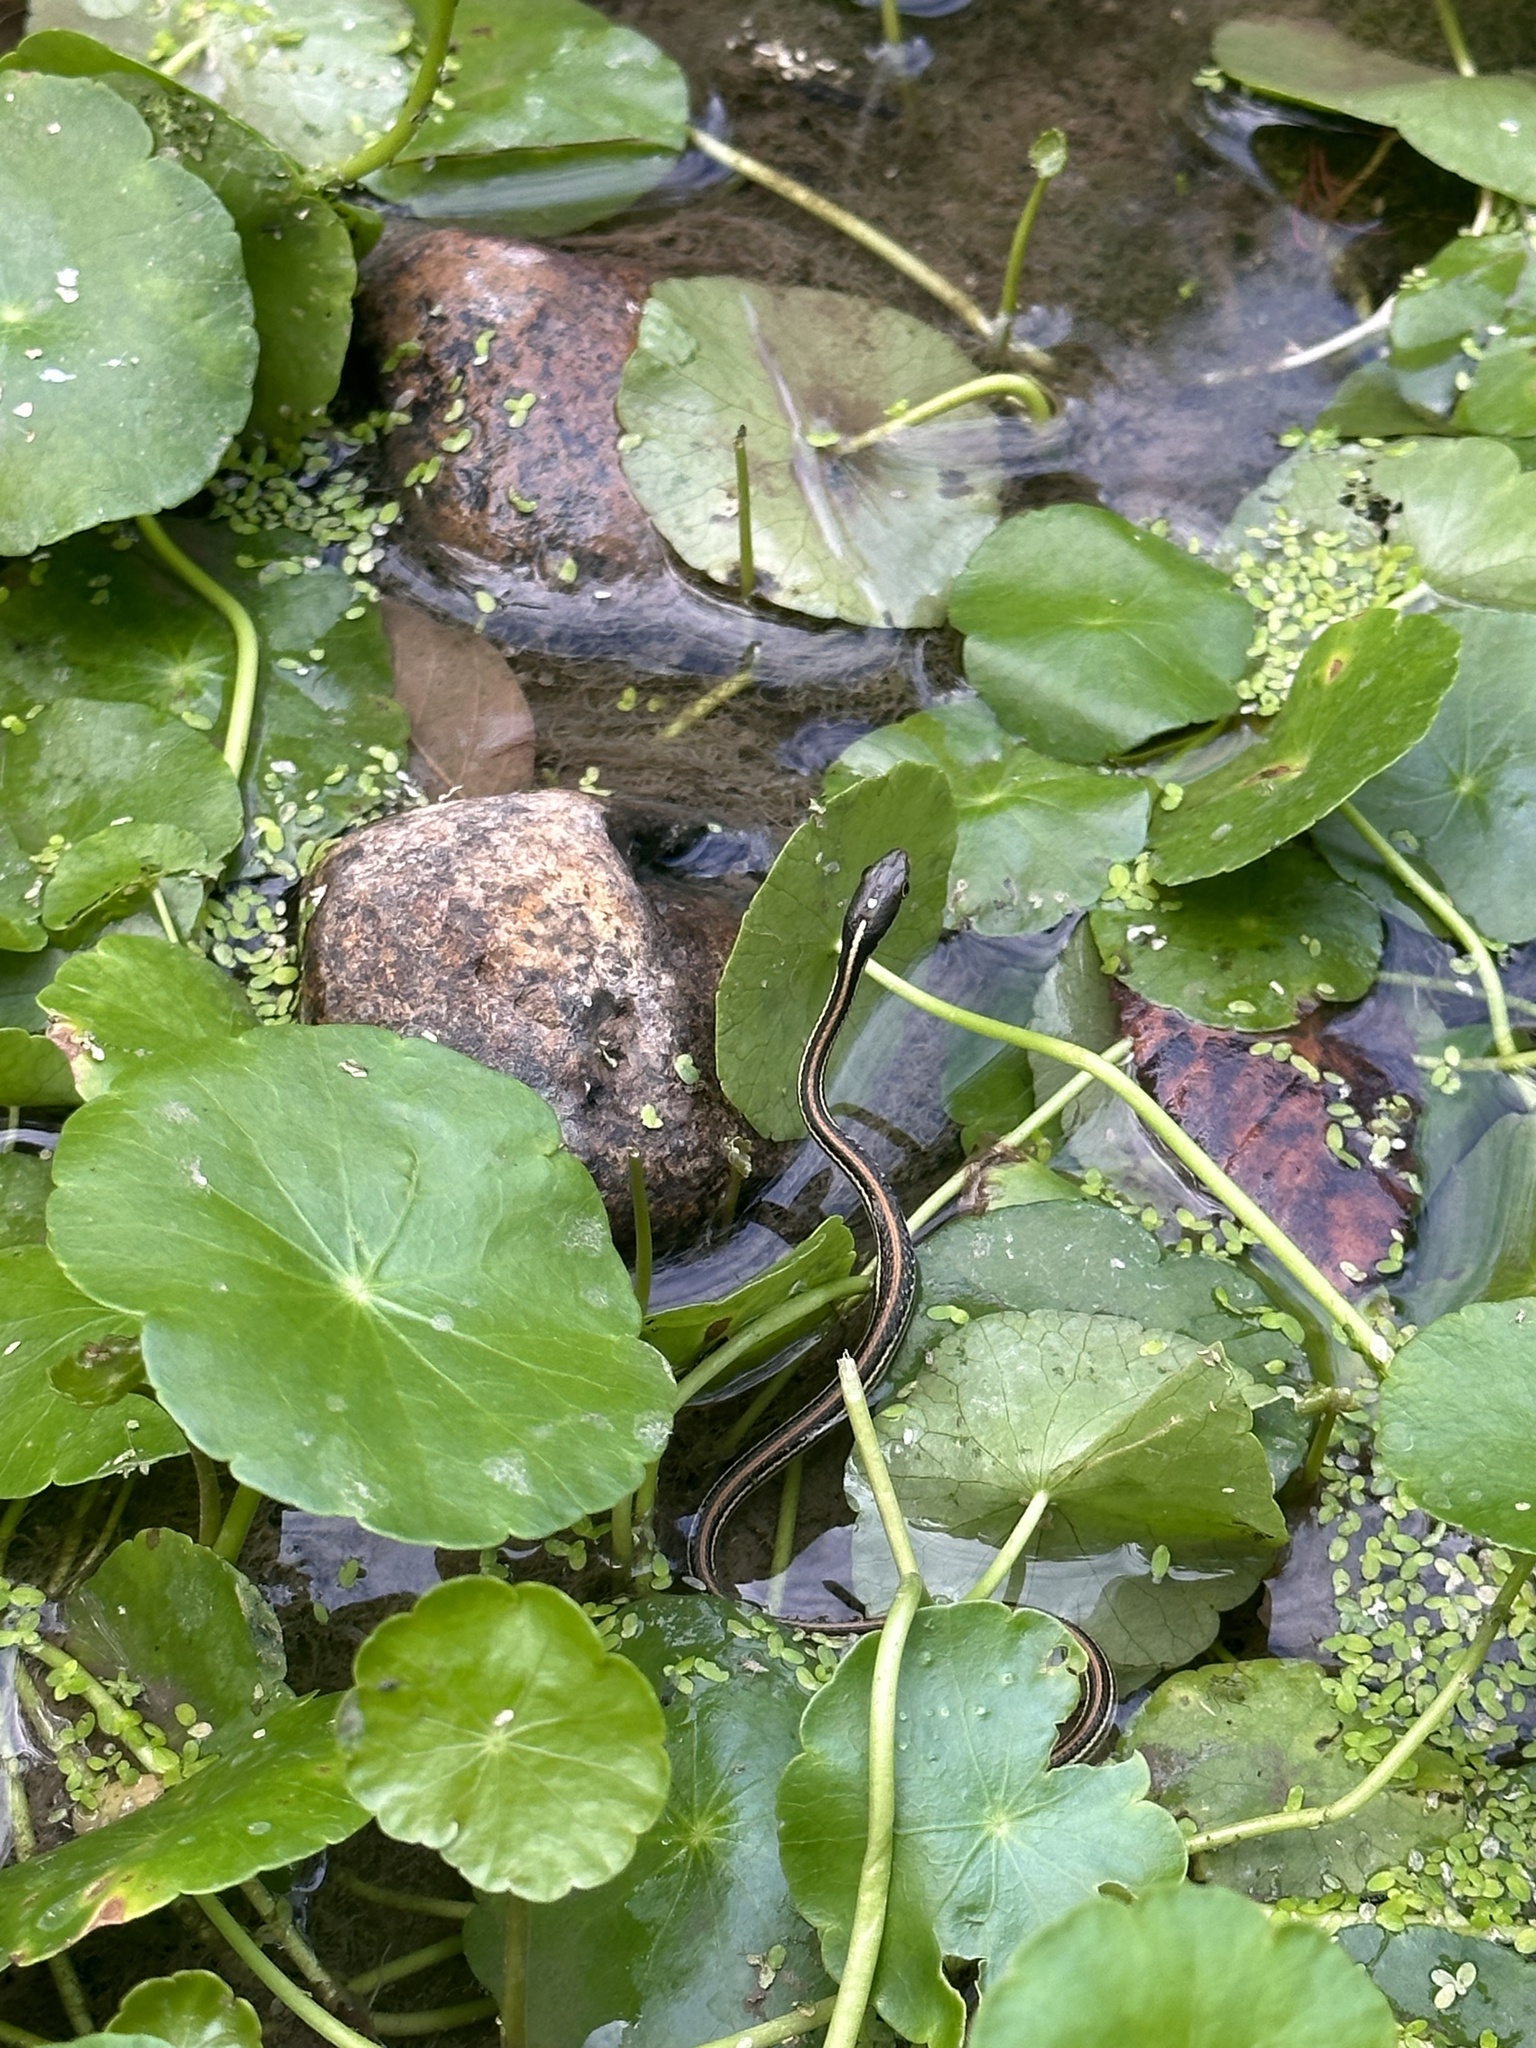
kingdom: Animalia
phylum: Chordata
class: Squamata
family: Colubridae
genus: Thamnophis
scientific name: Thamnophis proximus
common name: Western ribbon snake
